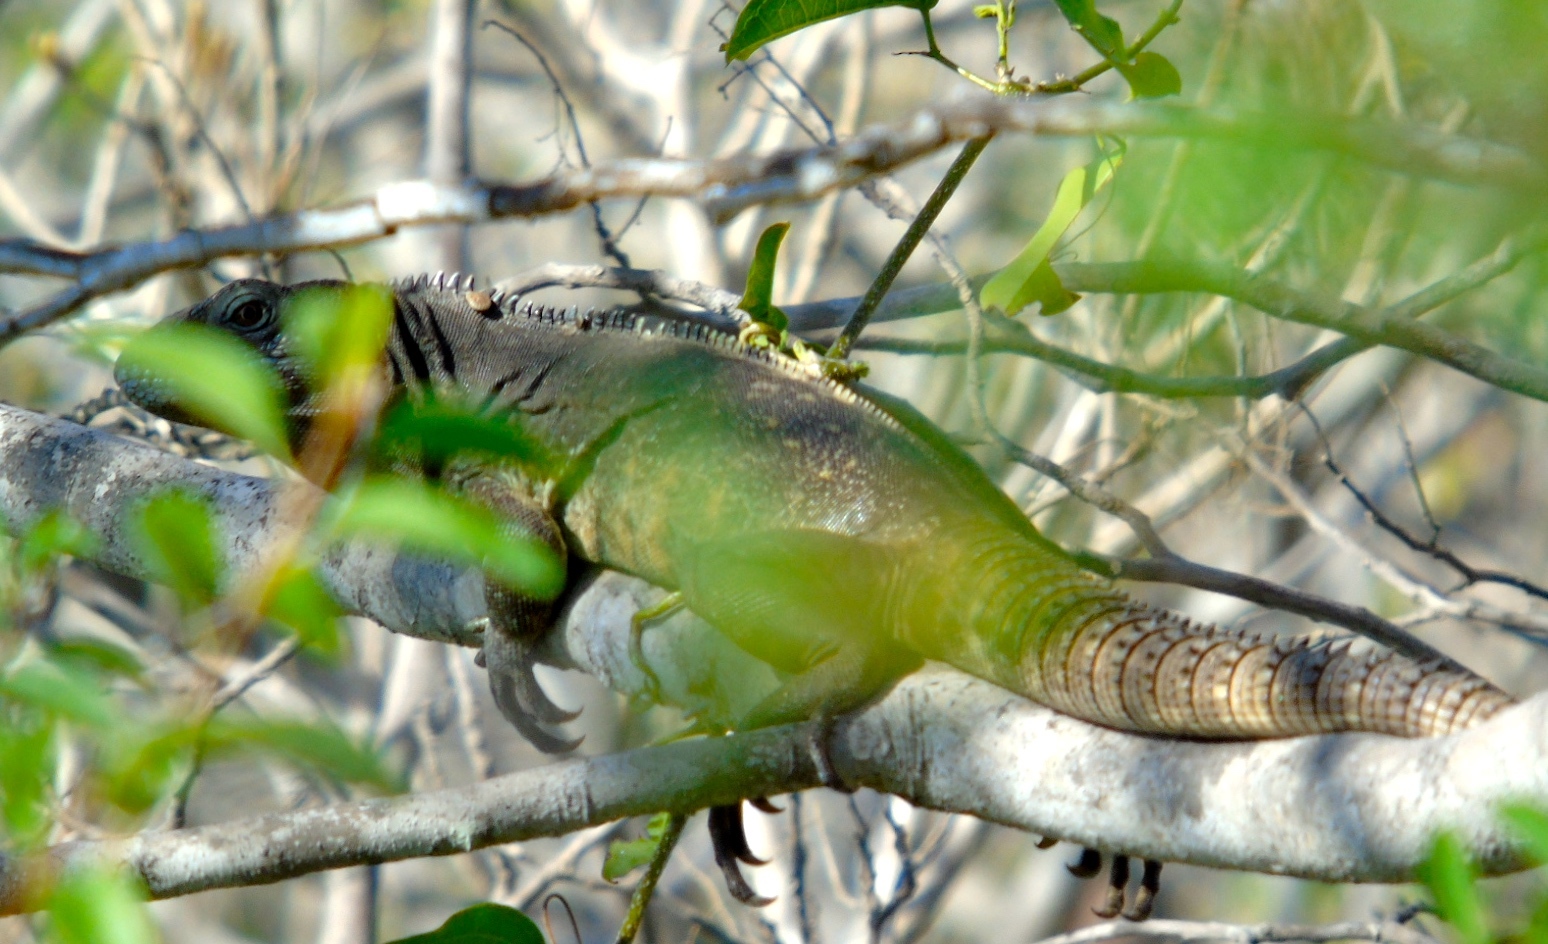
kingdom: Animalia
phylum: Chordata
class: Squamata
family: Iguanidae
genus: Ctenosaura
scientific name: Ctenosaura pectinata
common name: Guerreran spiny-tailed iguana
